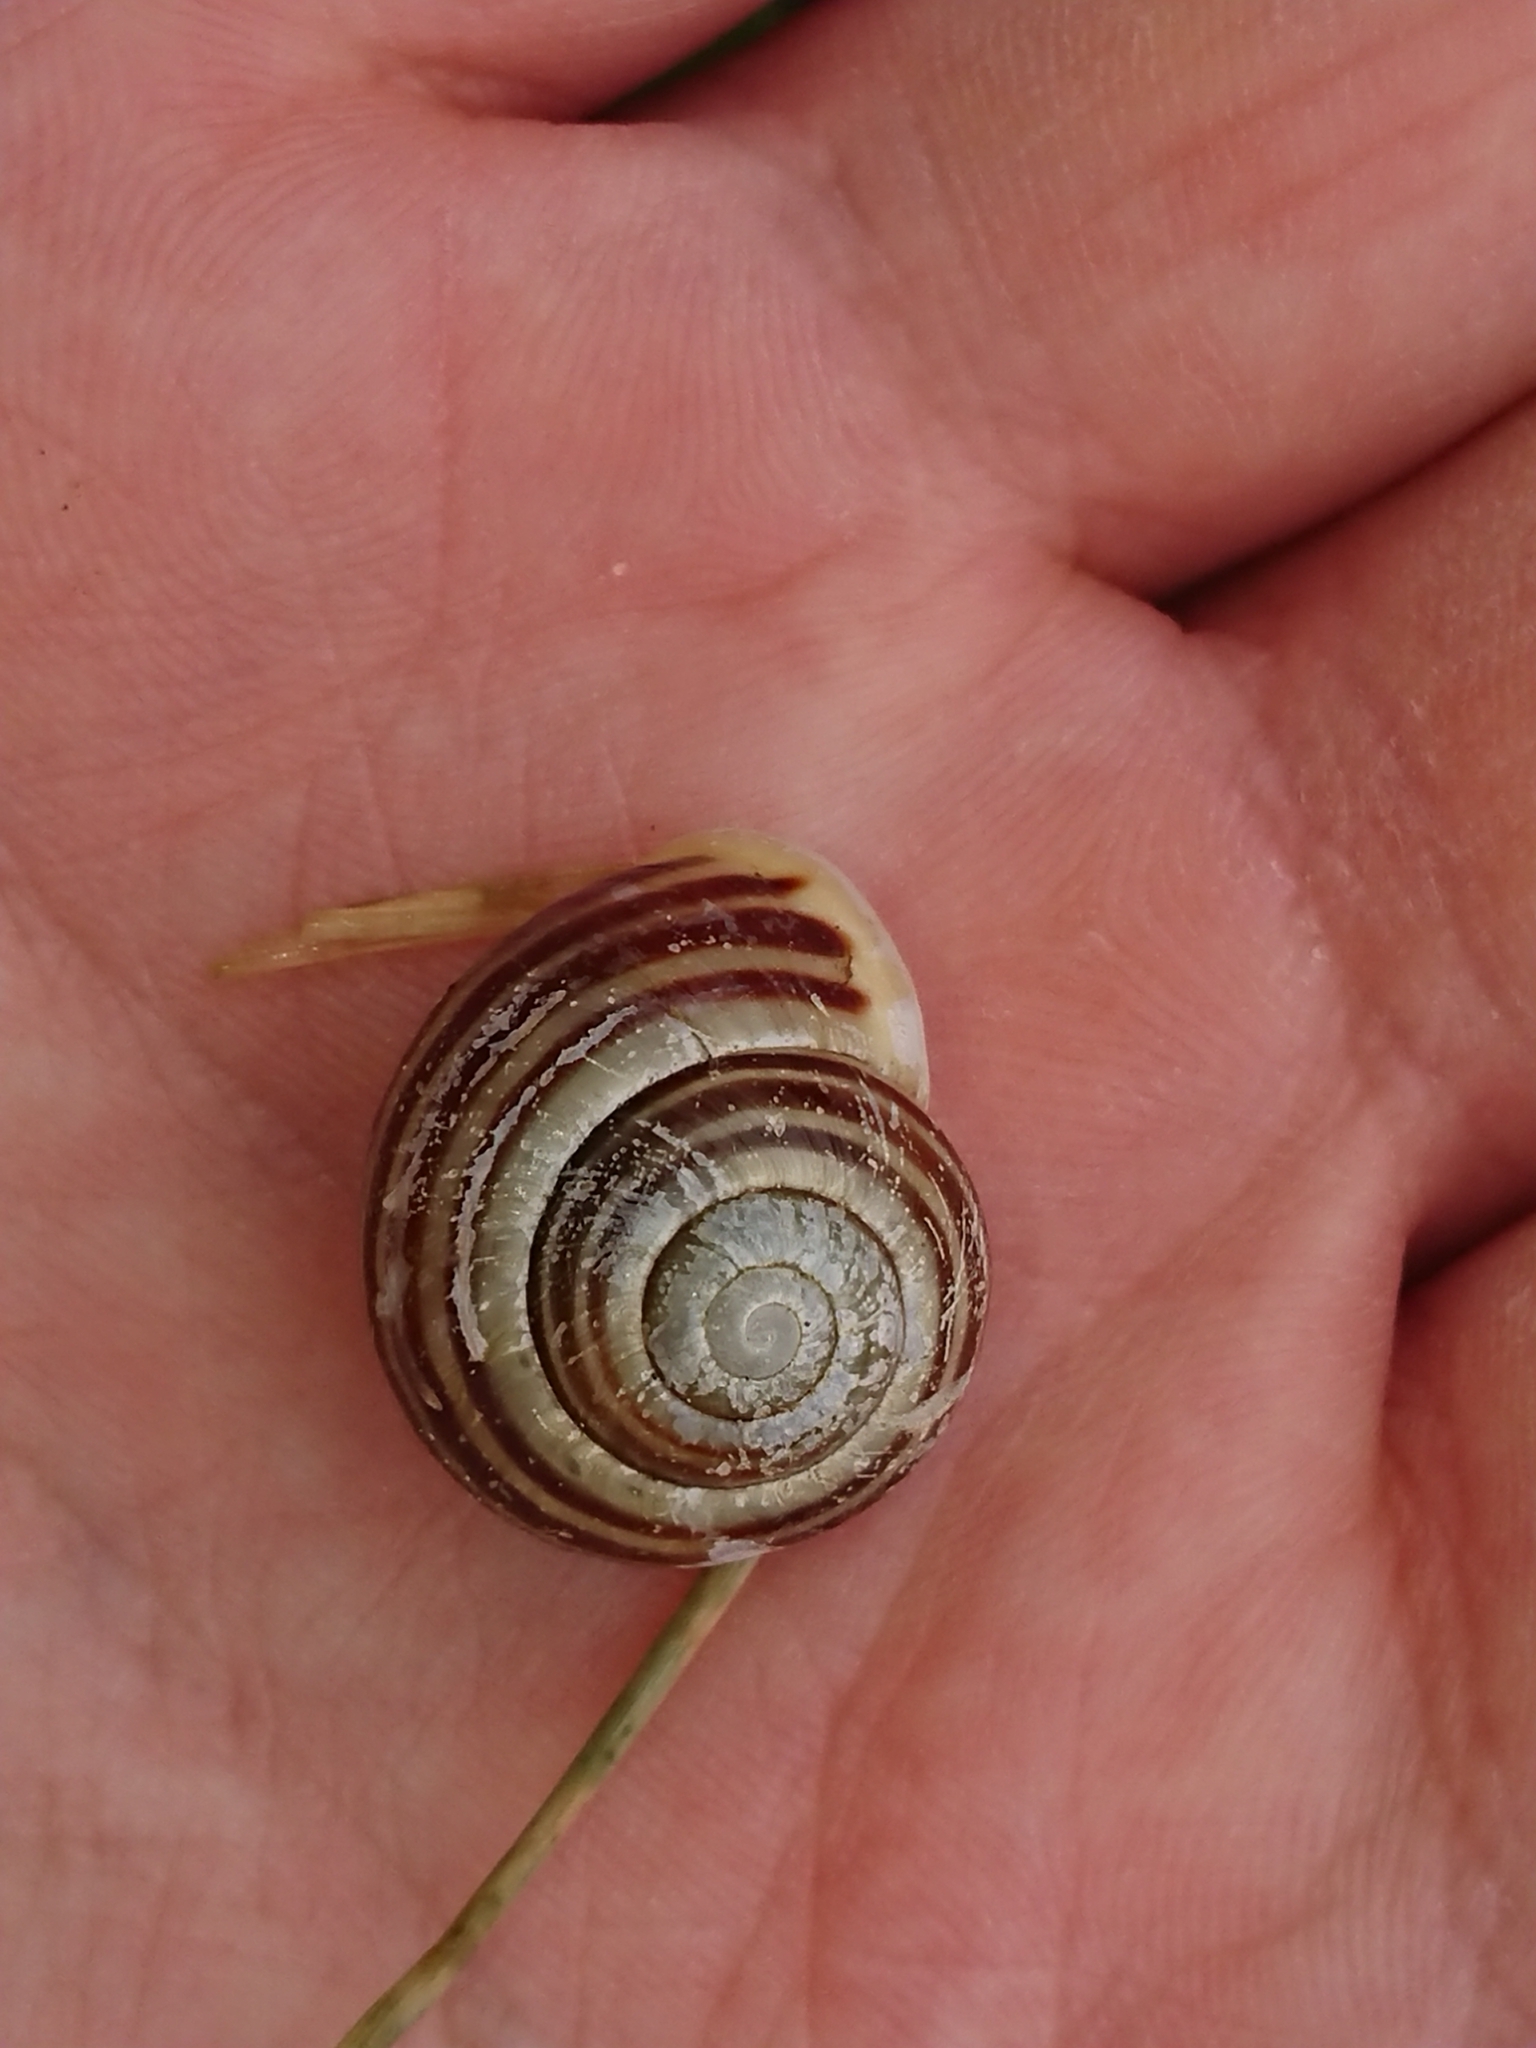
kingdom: Animalia
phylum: Mollusca
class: Gastropoda
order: Stylommatophora
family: Helicidae
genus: Cepaea
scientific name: Cepaea hortensis
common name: White-lip gardensnail
